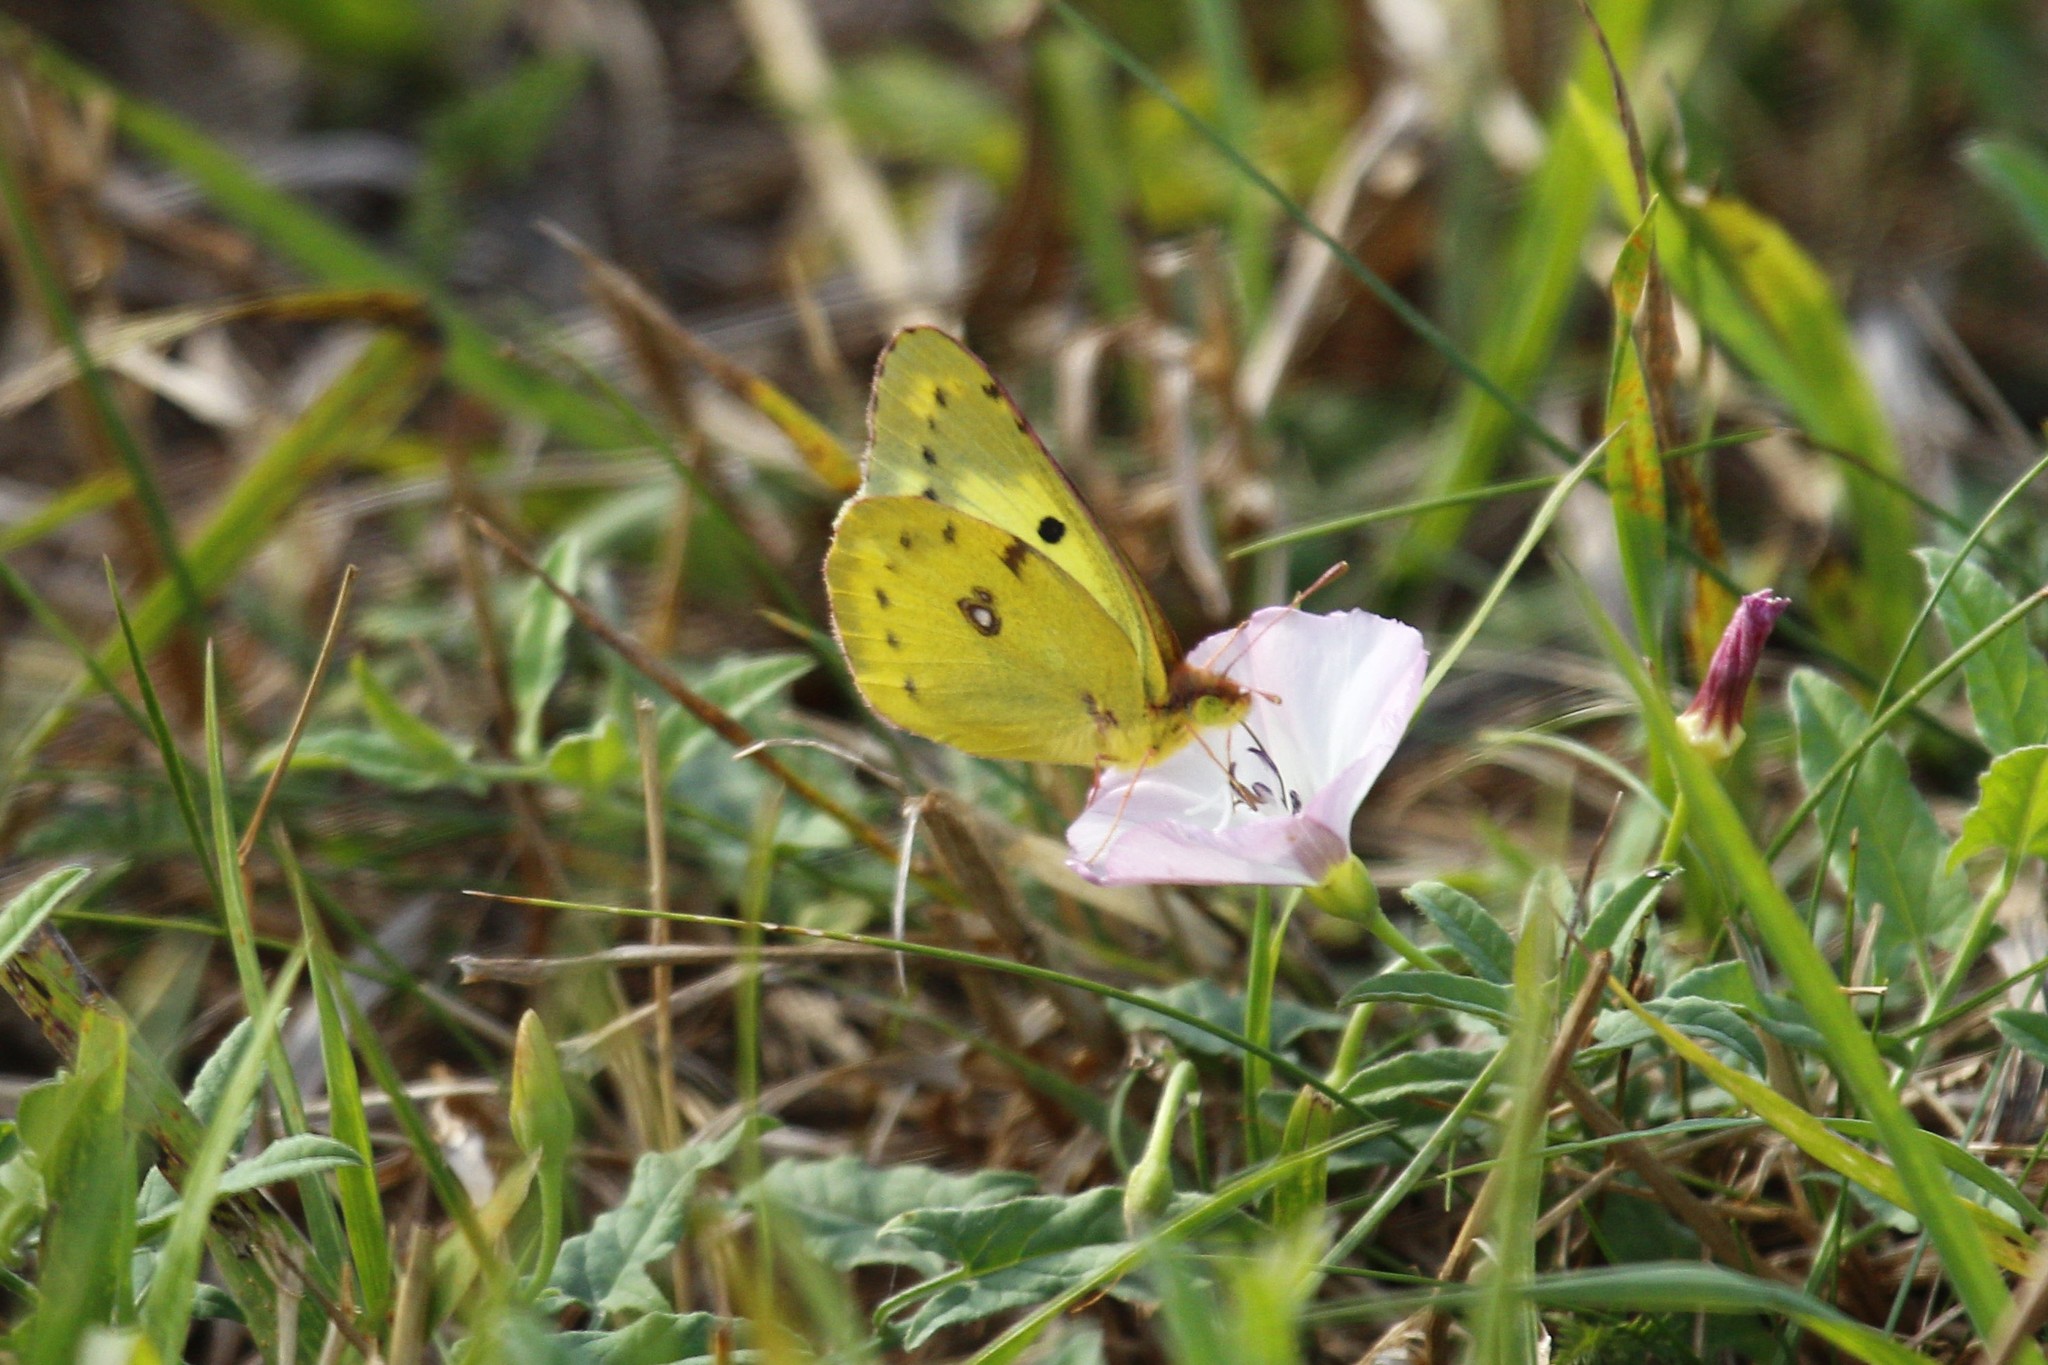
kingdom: Animalia
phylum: Arthropoda
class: Insecta
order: Lepidoptera
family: Pieridae
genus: Colias
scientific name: Colias hyale
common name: Pale clouded yellow
